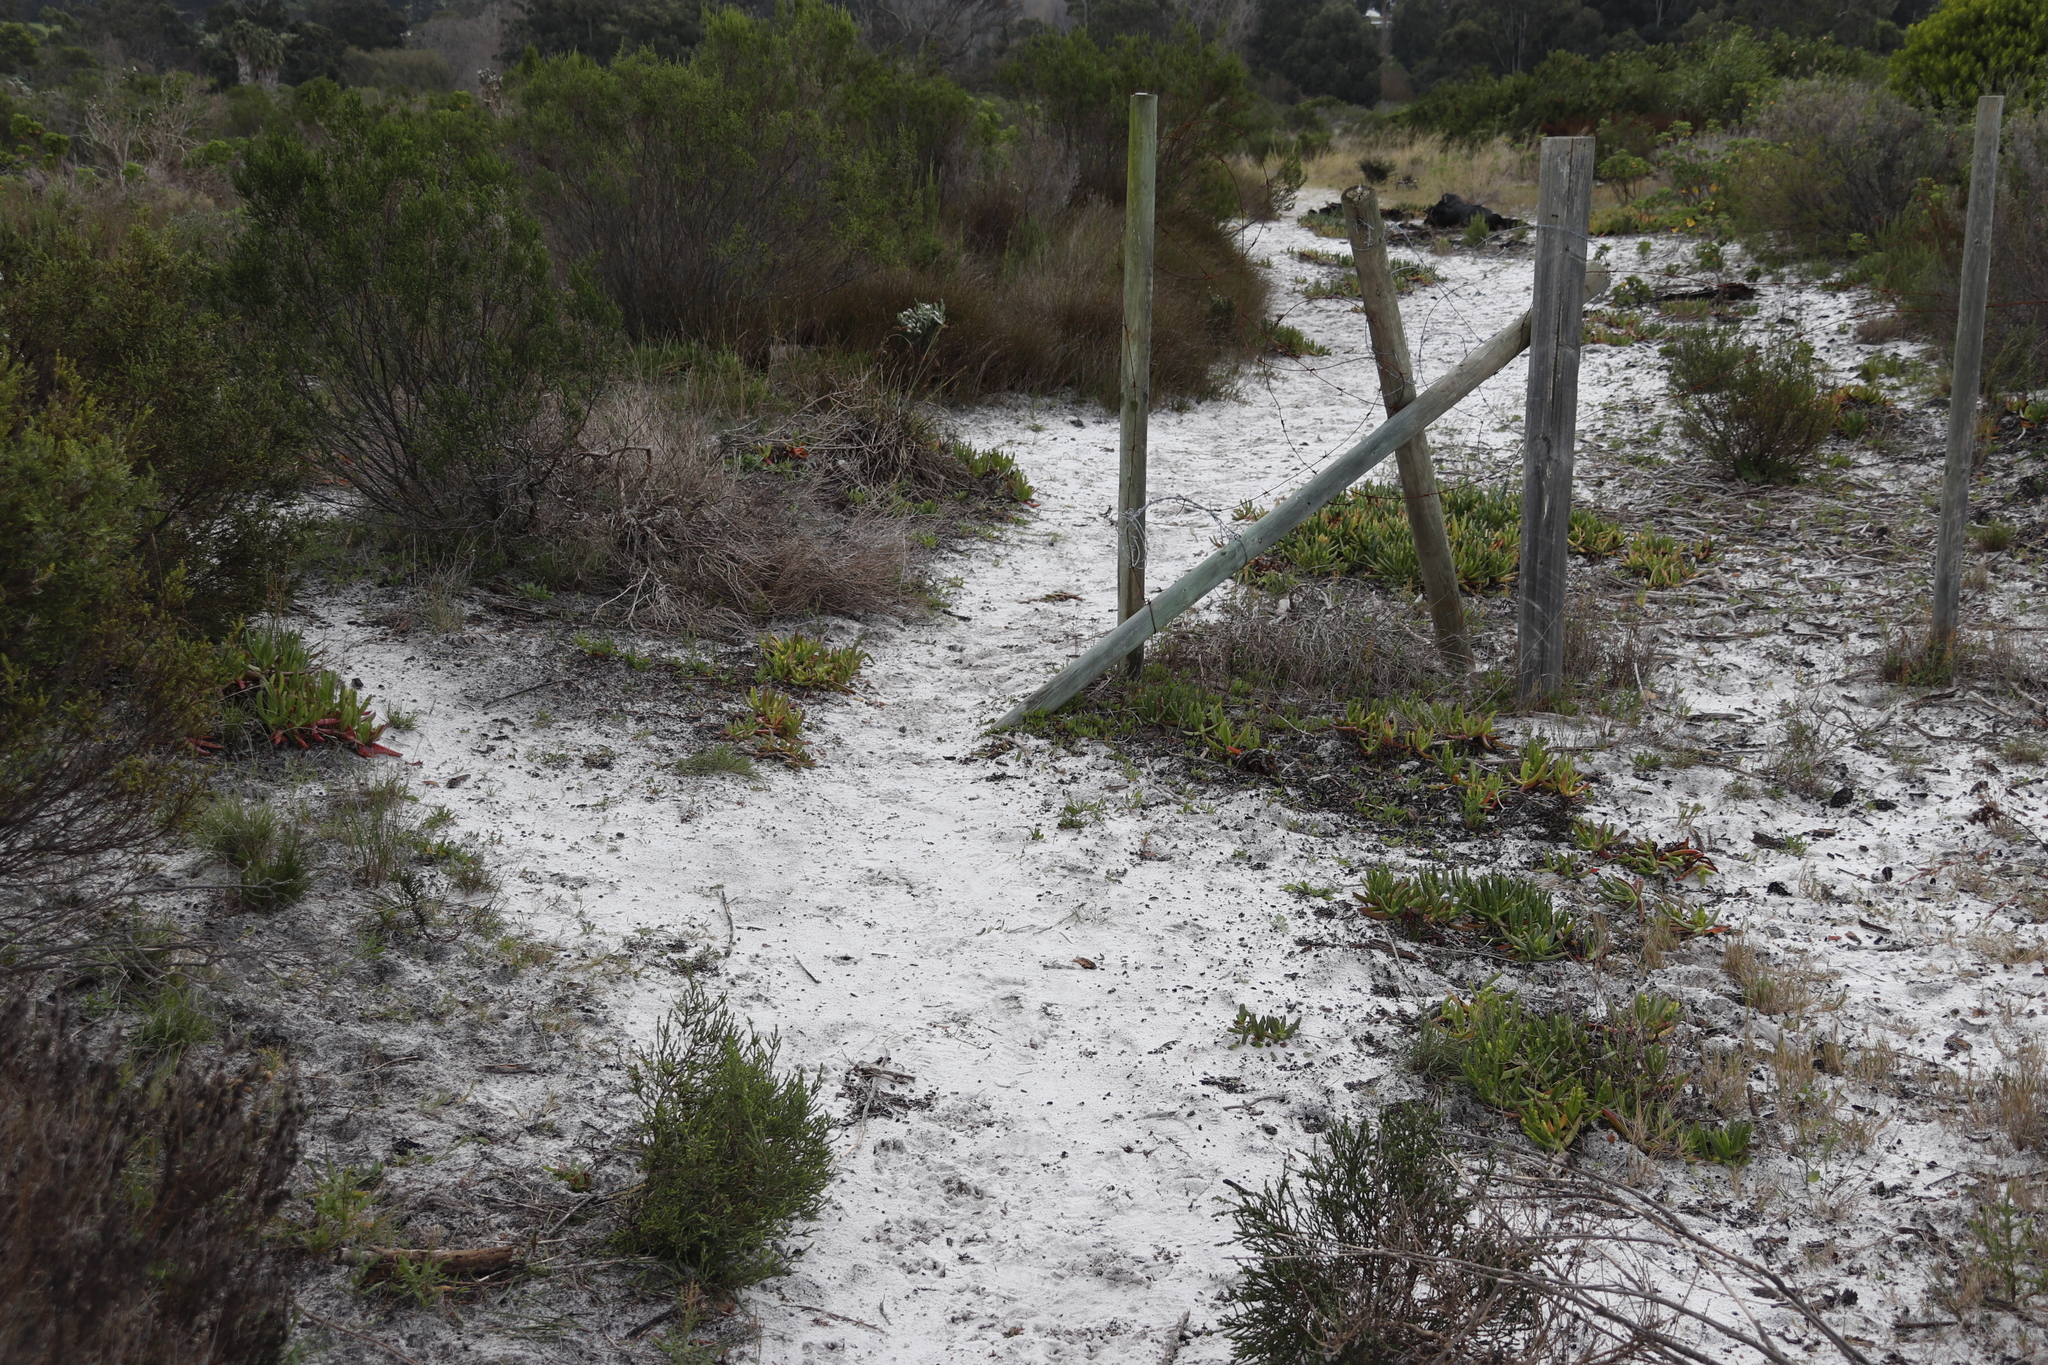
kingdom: Plantae
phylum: Tracheophyta
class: Magnoliopsida
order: Caryophyllales
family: Aizoaceae
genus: Carpobrotus
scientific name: Carpobrotus edulis
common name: Hottentot-fig
